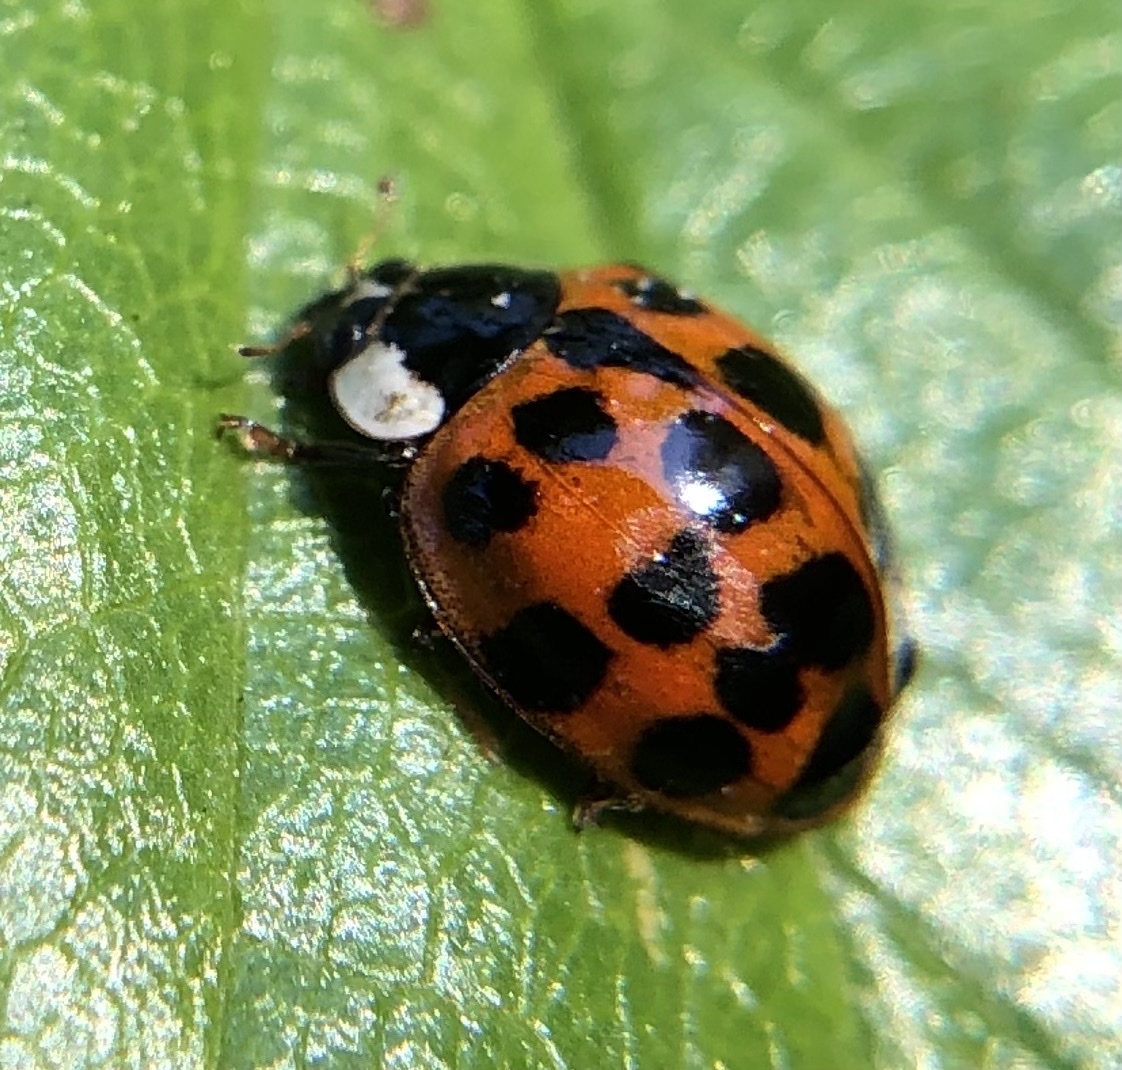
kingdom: Animalia
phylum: Arthropoda
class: Insecta
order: Coleoptera
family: Coccinellidae
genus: Harmonia
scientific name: Harmonia axyridis
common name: Harlequin ladybird
